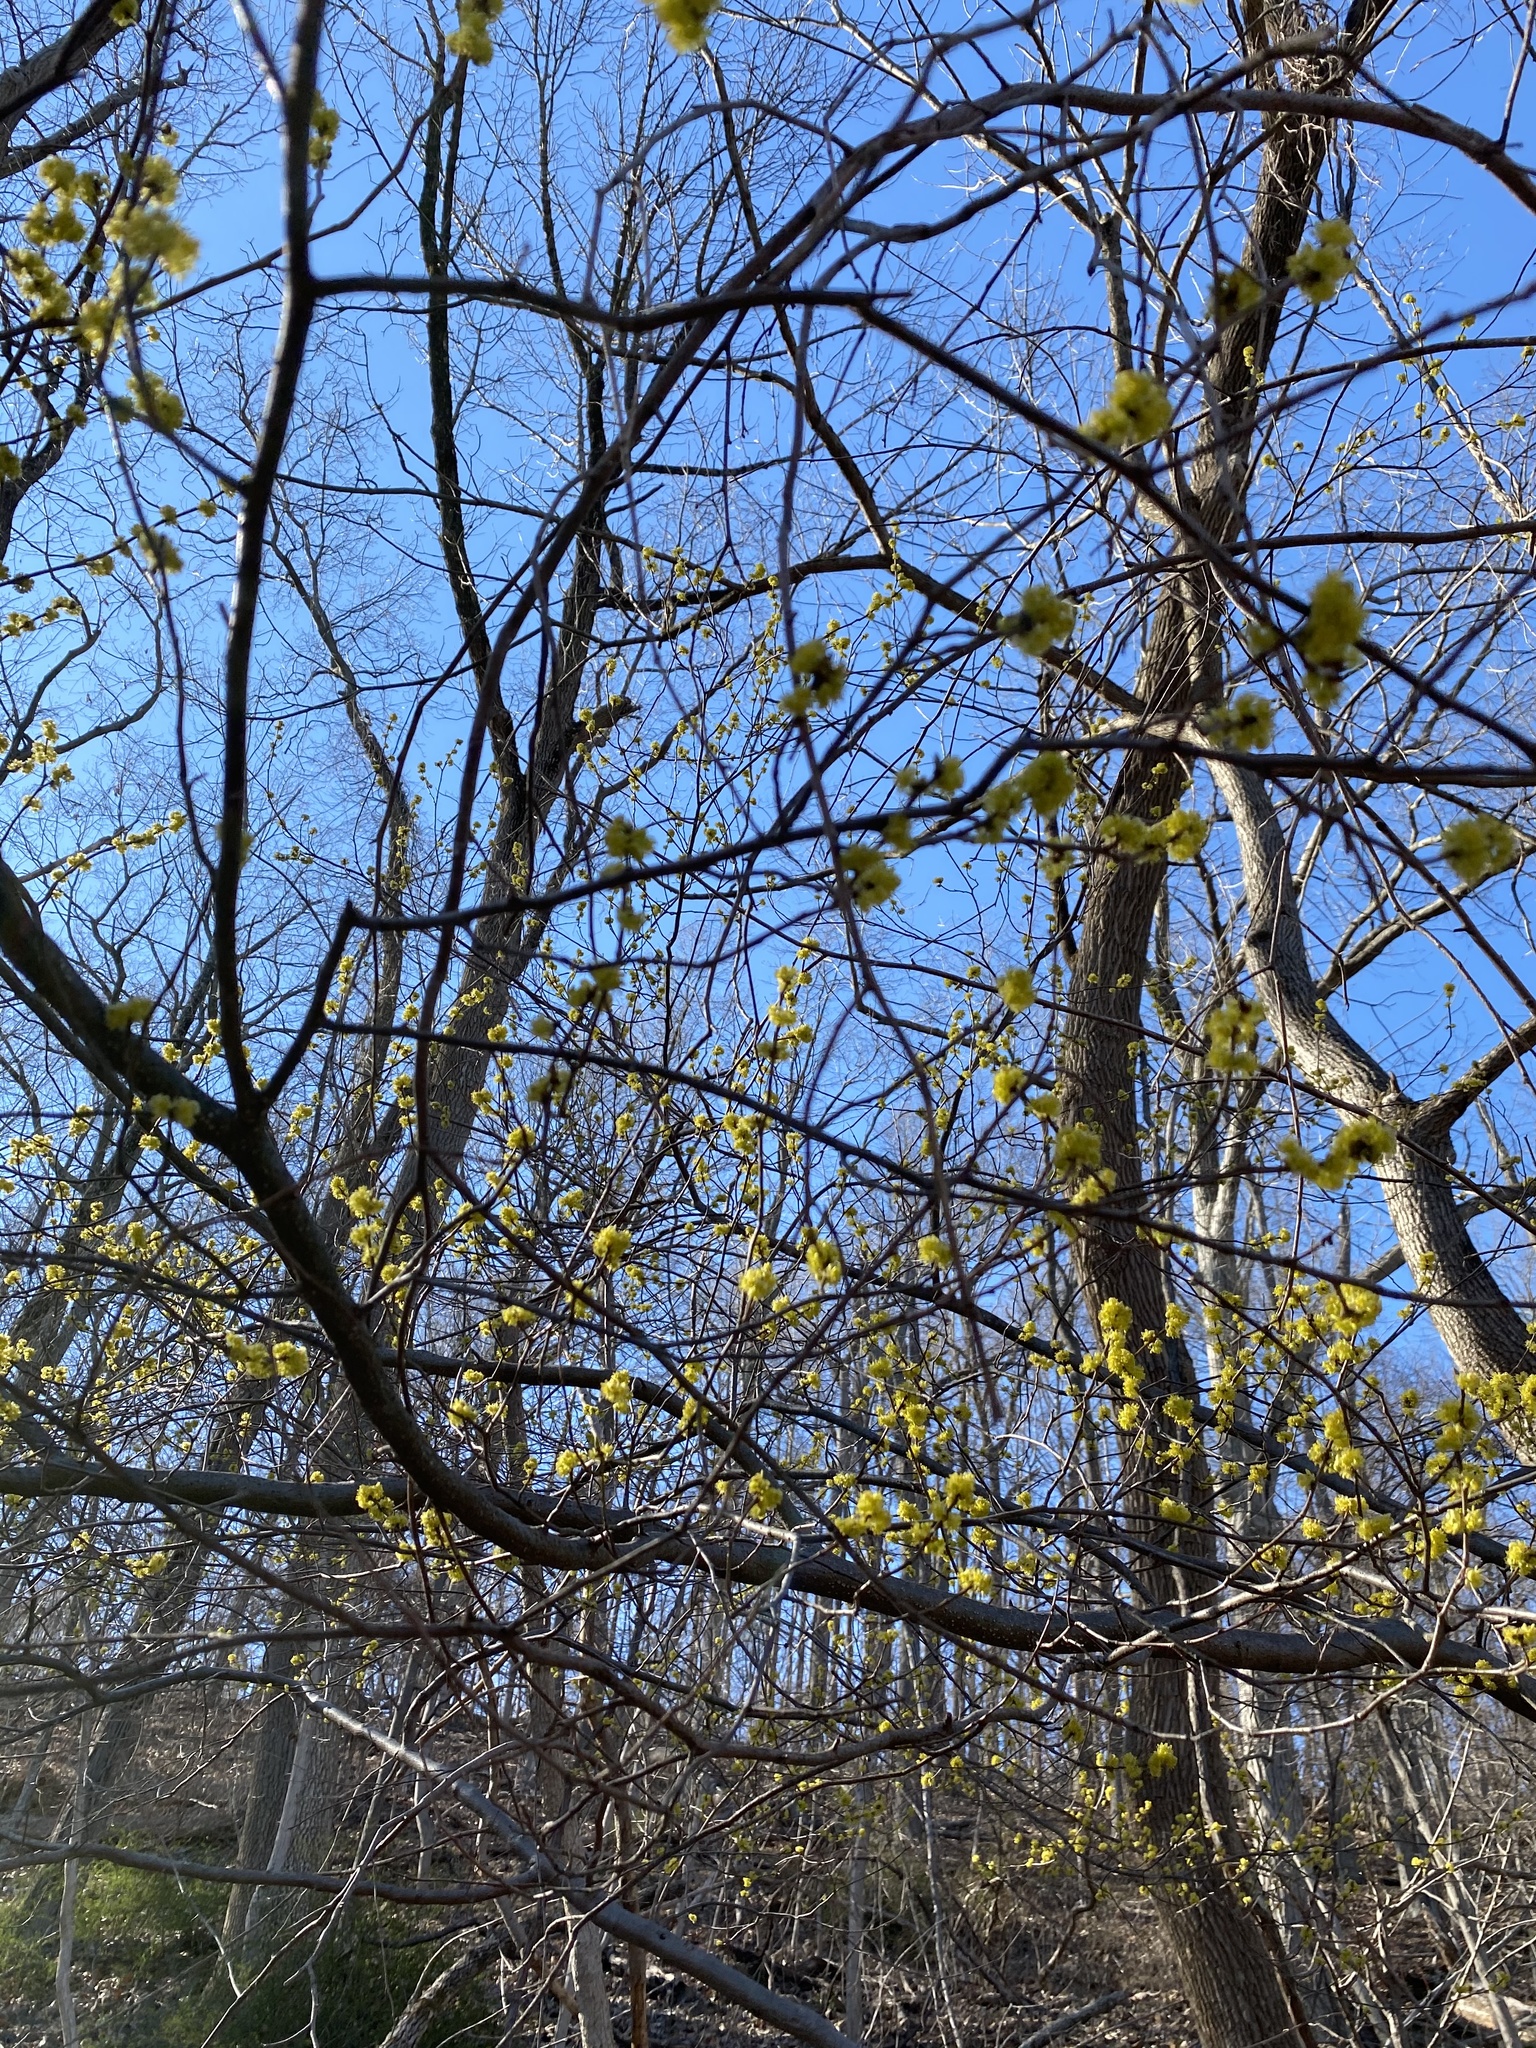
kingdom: Plantae
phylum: Tracheophyta
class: Magnoliopsida
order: Laurales
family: Lauraceae
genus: Lindera
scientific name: Lindera benzoin
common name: Spicebush
